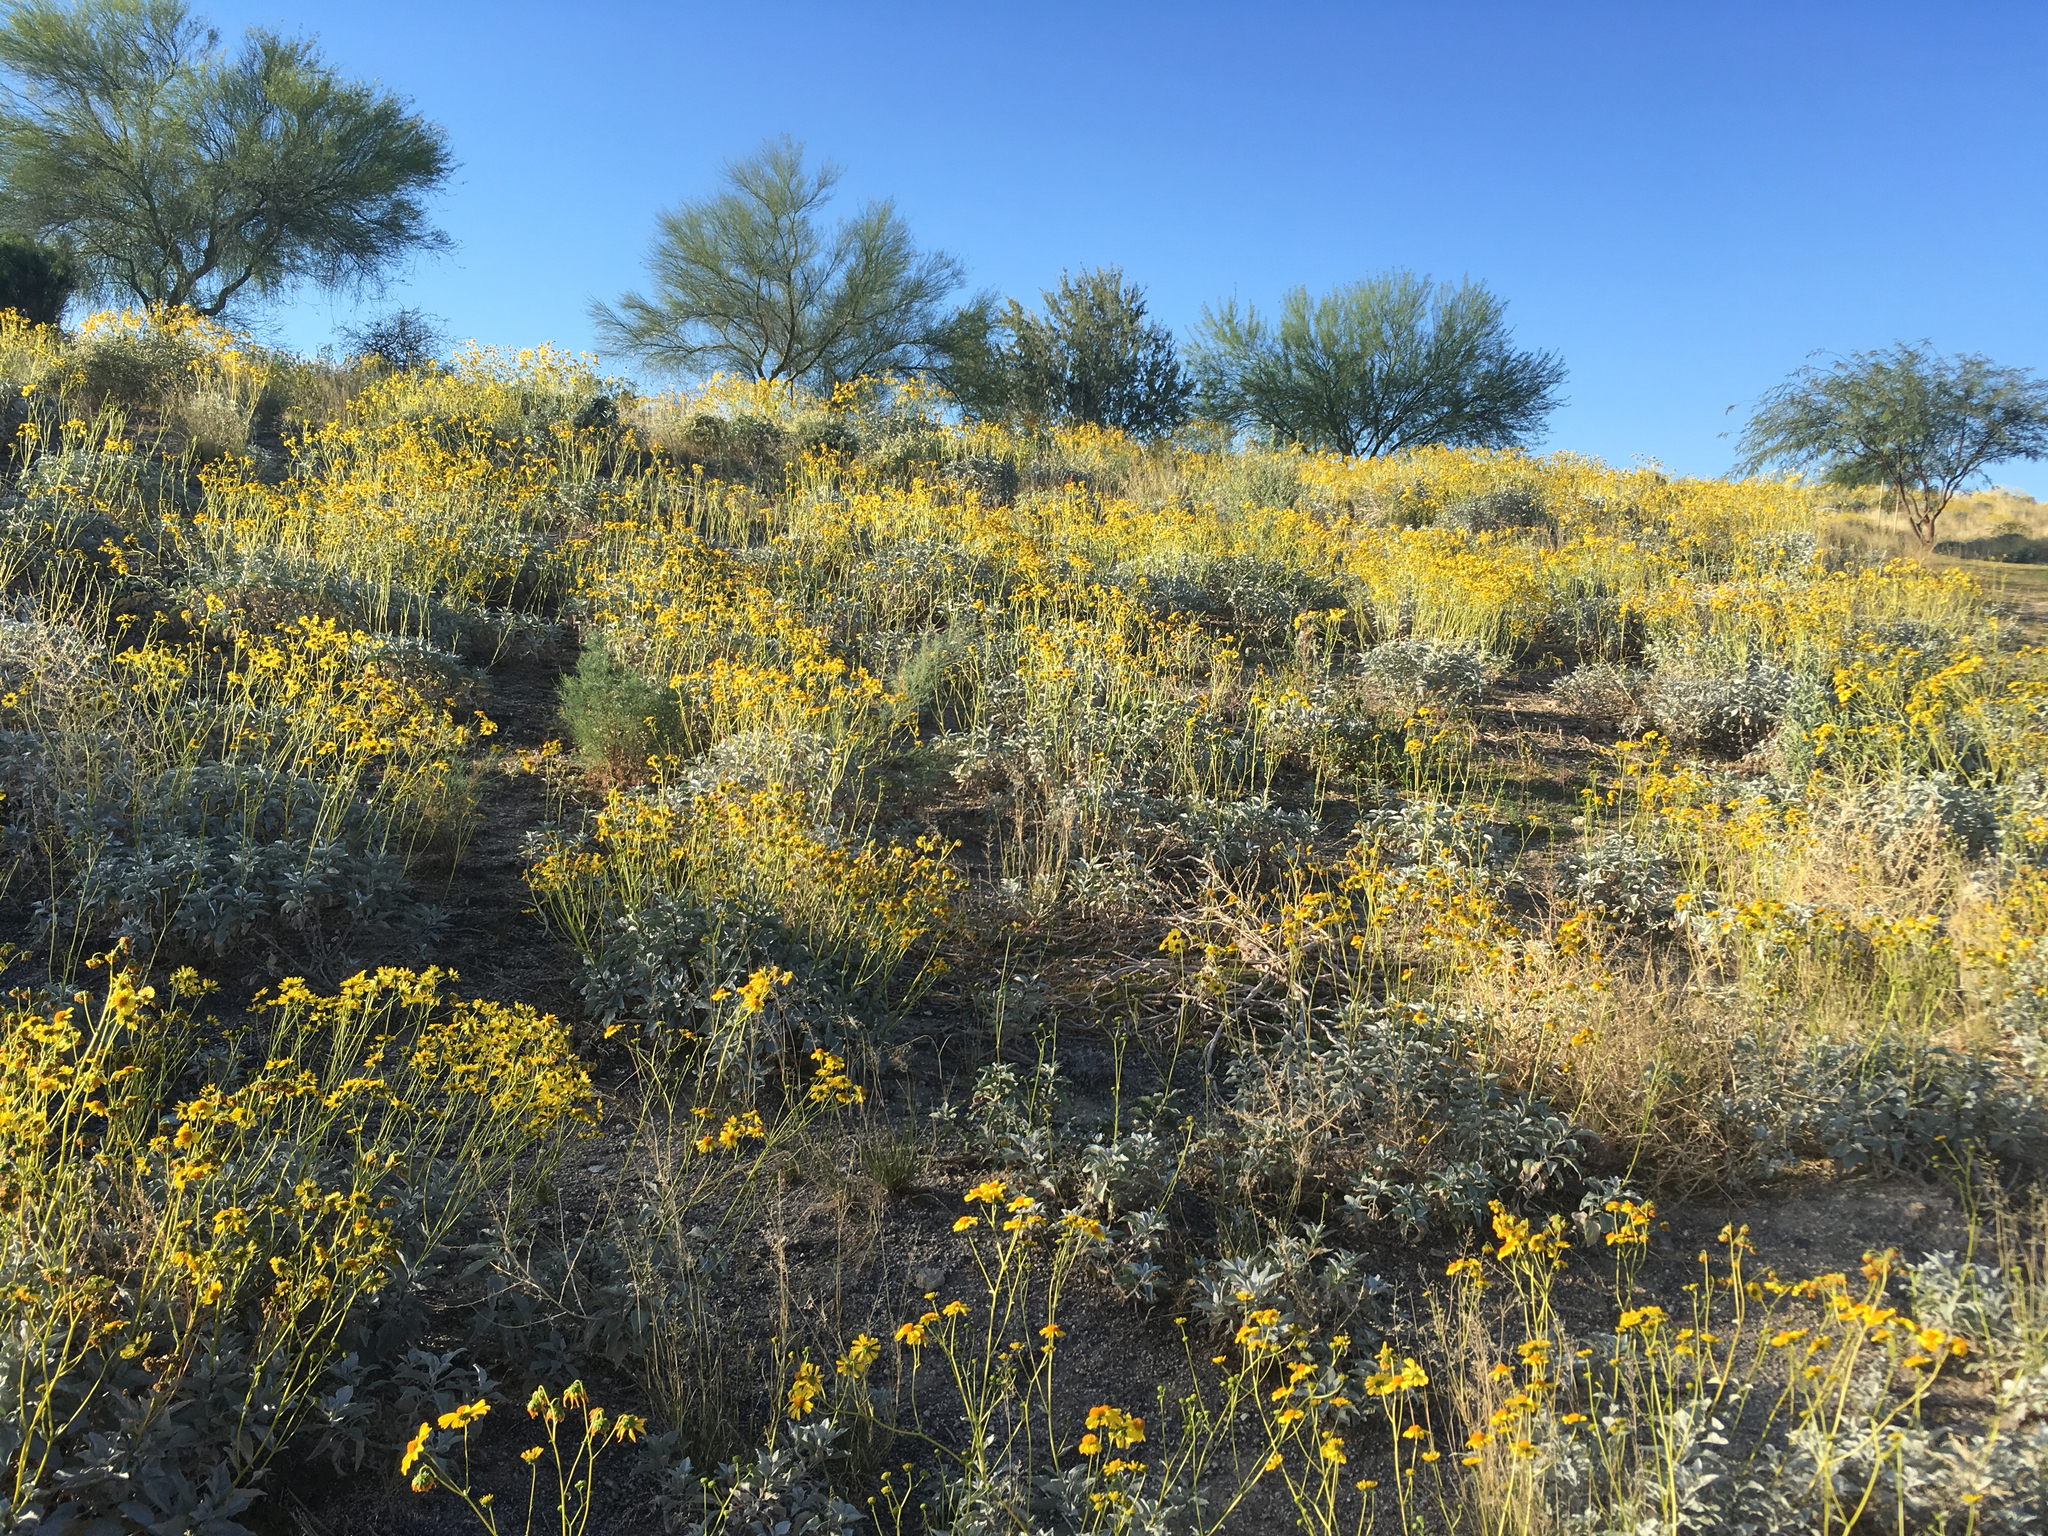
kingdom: Plantae
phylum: Tracheophyta
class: Magnoliopsida
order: Asterales
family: Asteraceae
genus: Encelia
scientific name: Encelia farinosa
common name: Brittlebush
